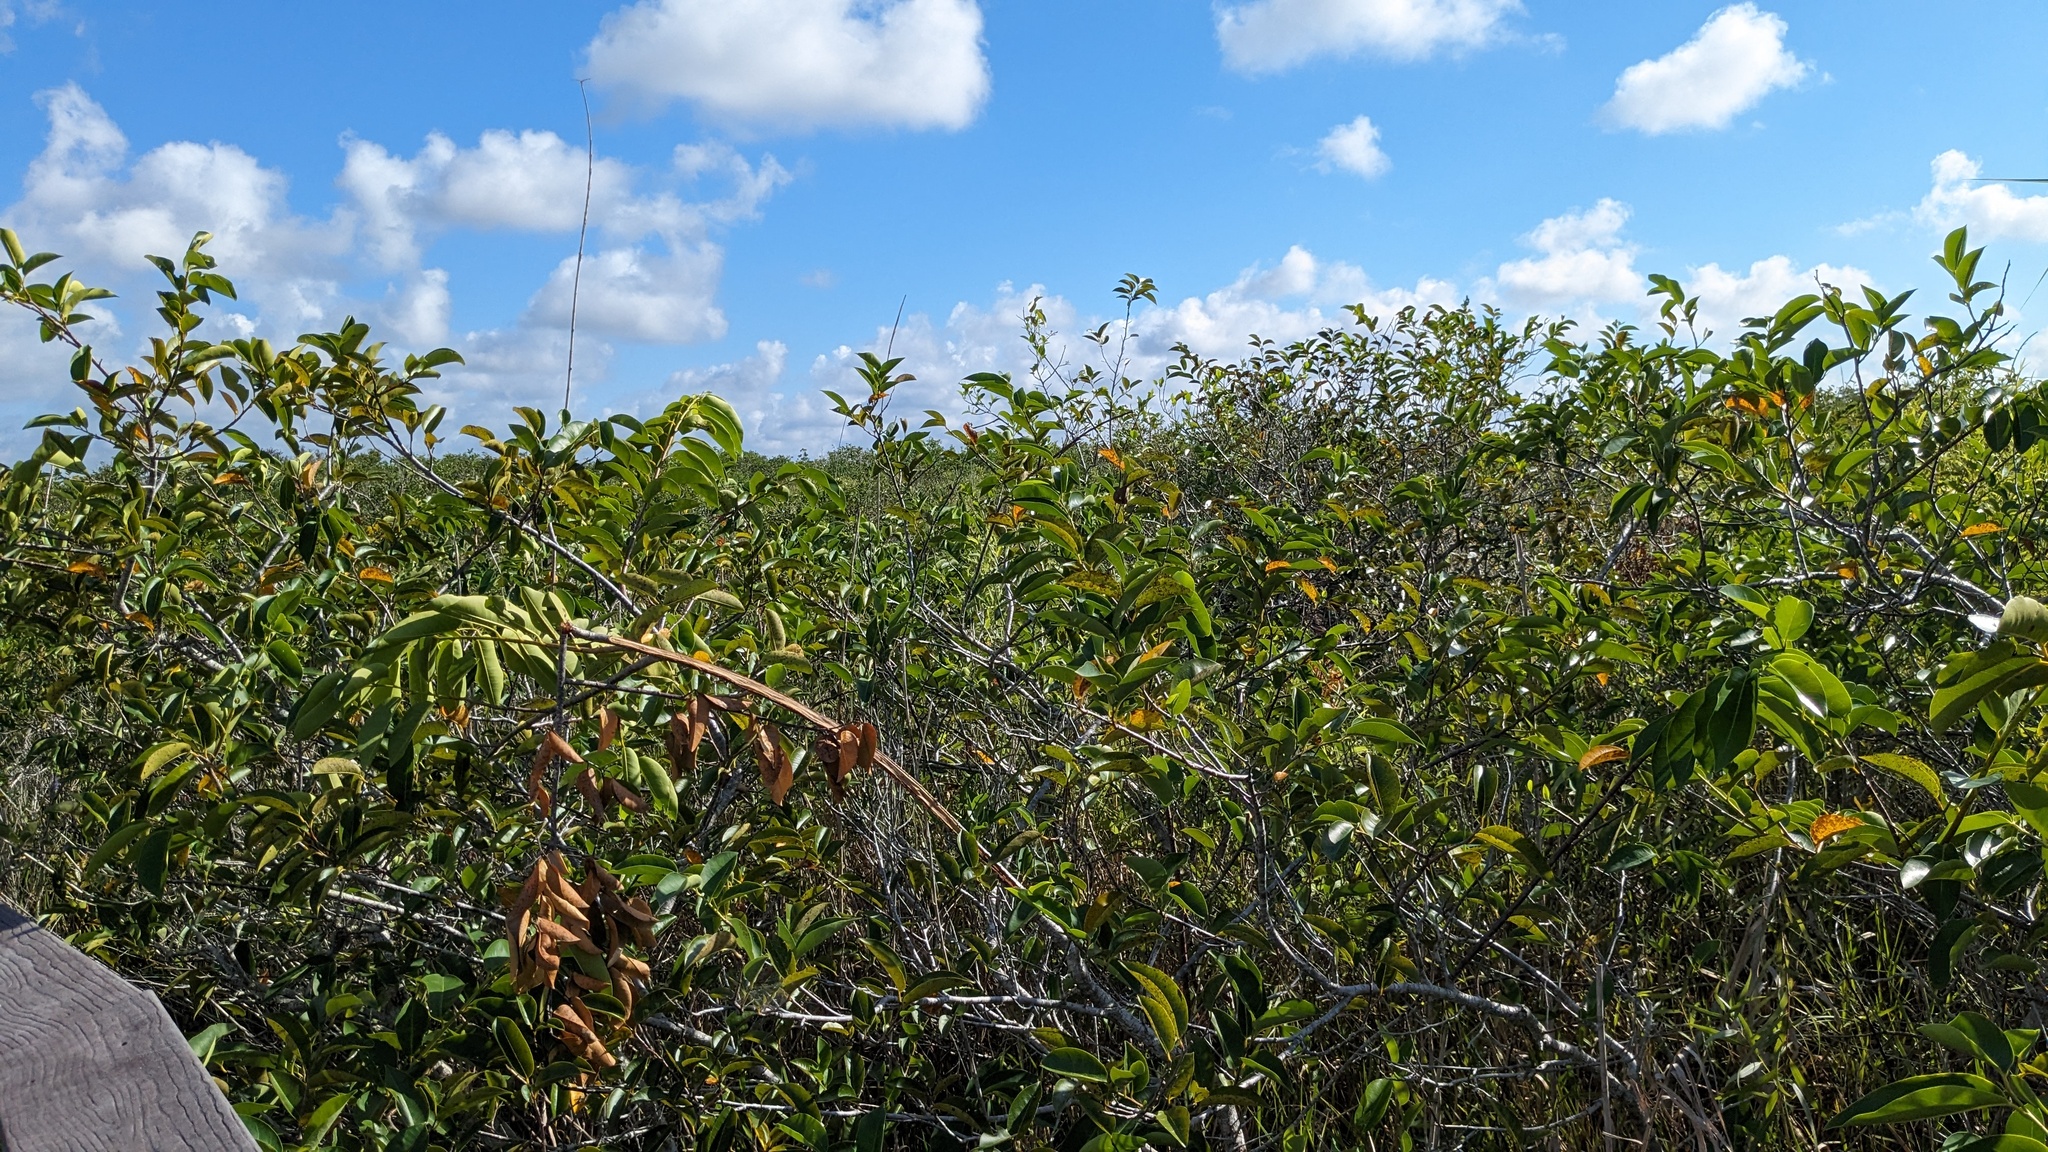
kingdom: Plantae
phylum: Tracheophyta
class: Magnoliopsida
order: Magnoliales
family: Annonaceae
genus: Annona
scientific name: Annona glabra
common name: Monkey apple
